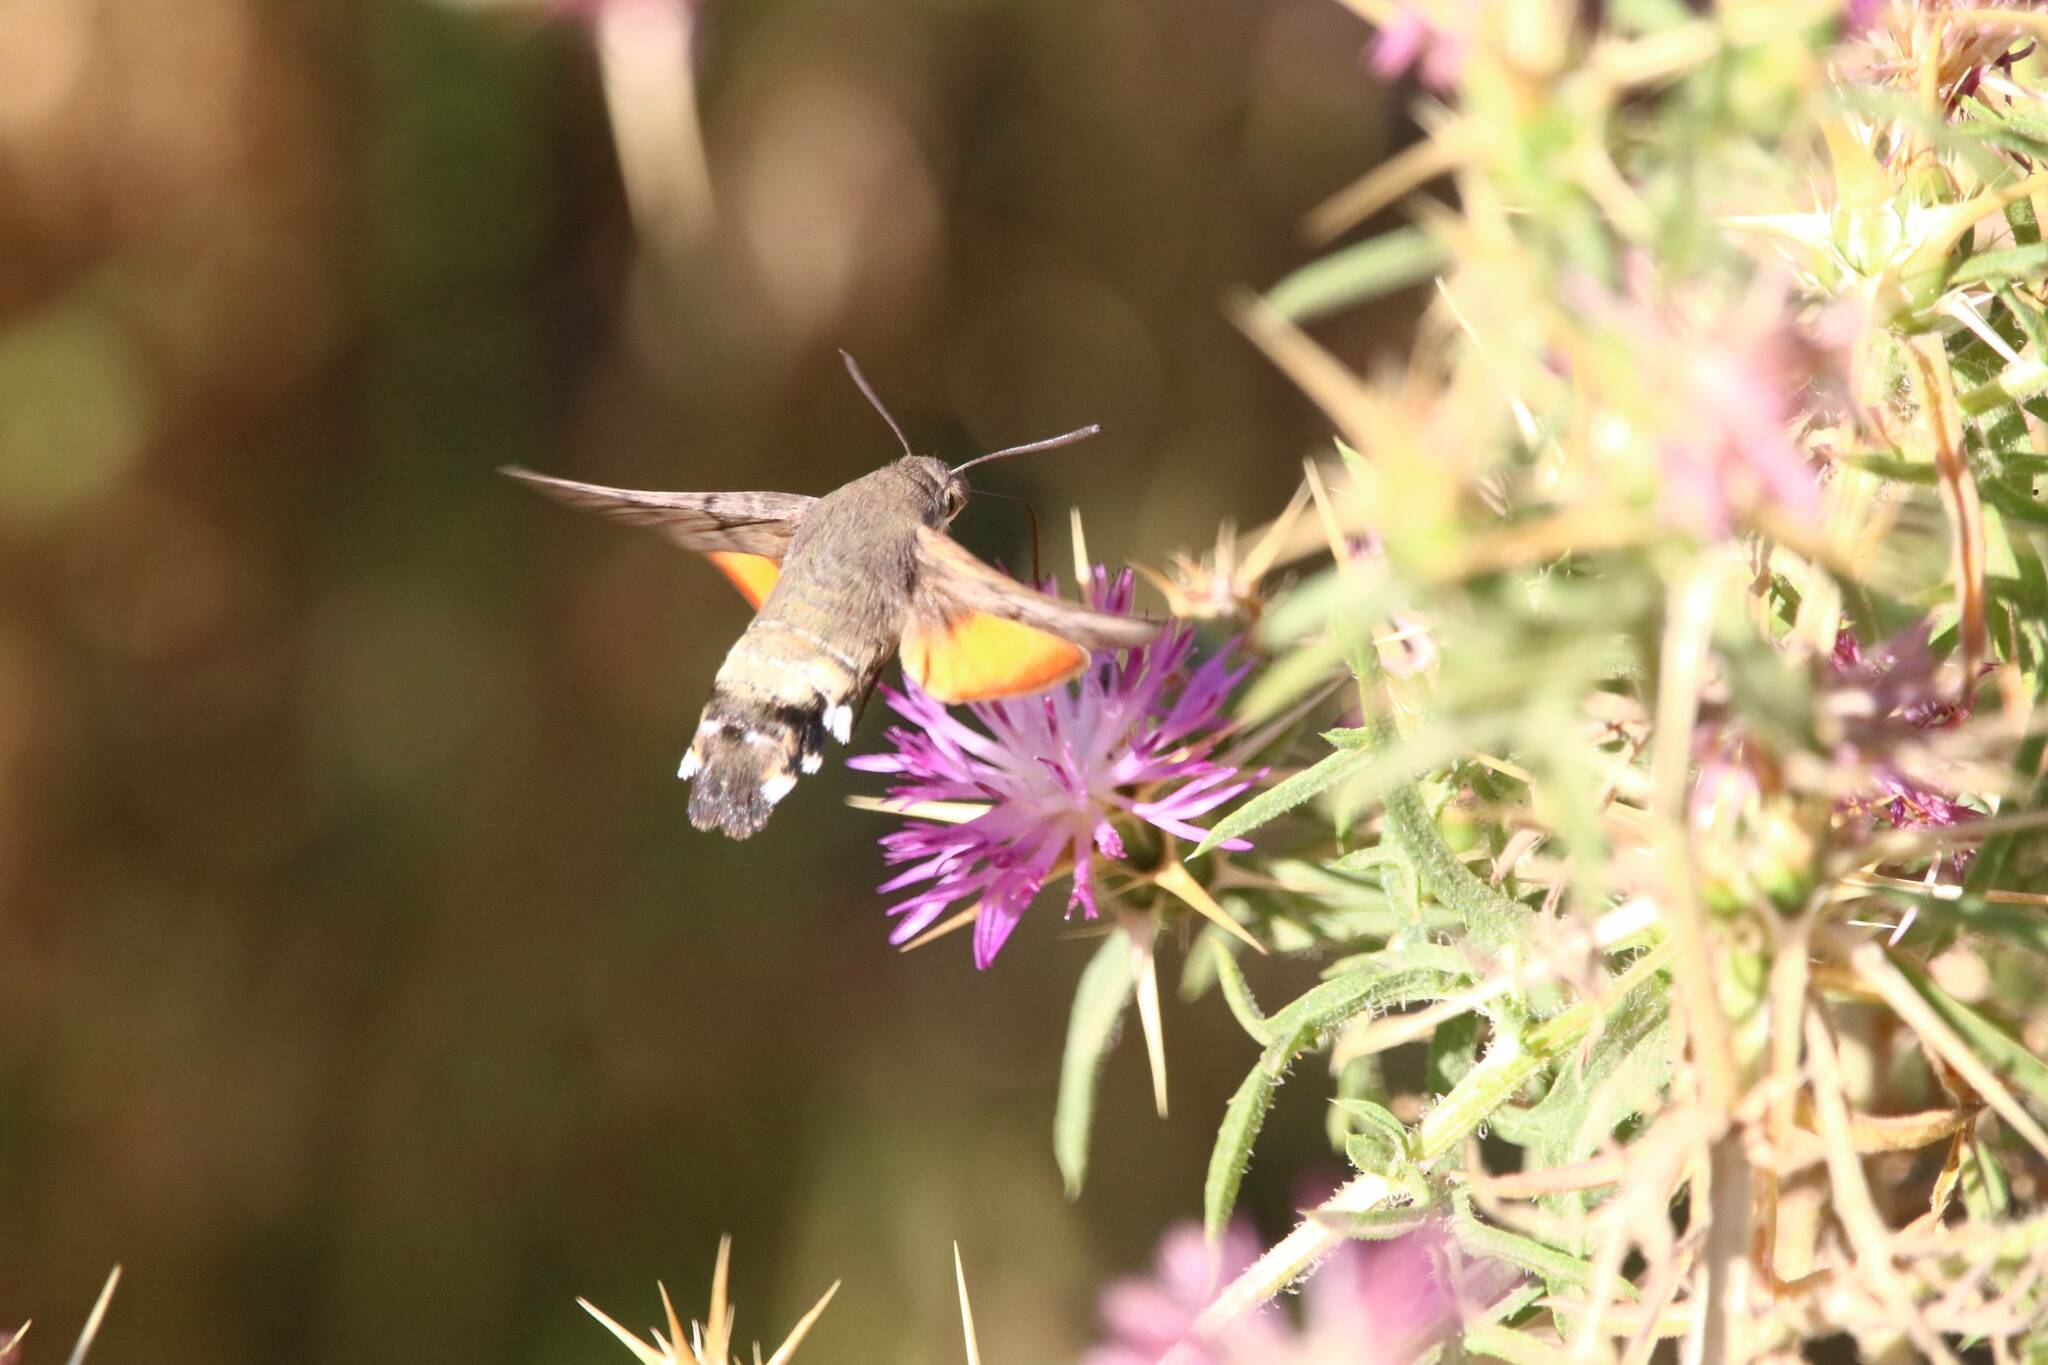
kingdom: Animalia
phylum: Arthropoda
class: Insecta
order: Lepidoptera
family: Sphingidae
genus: Macroglossum
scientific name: Macroglossum stellatarum
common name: Humming-bird hawk-moth
